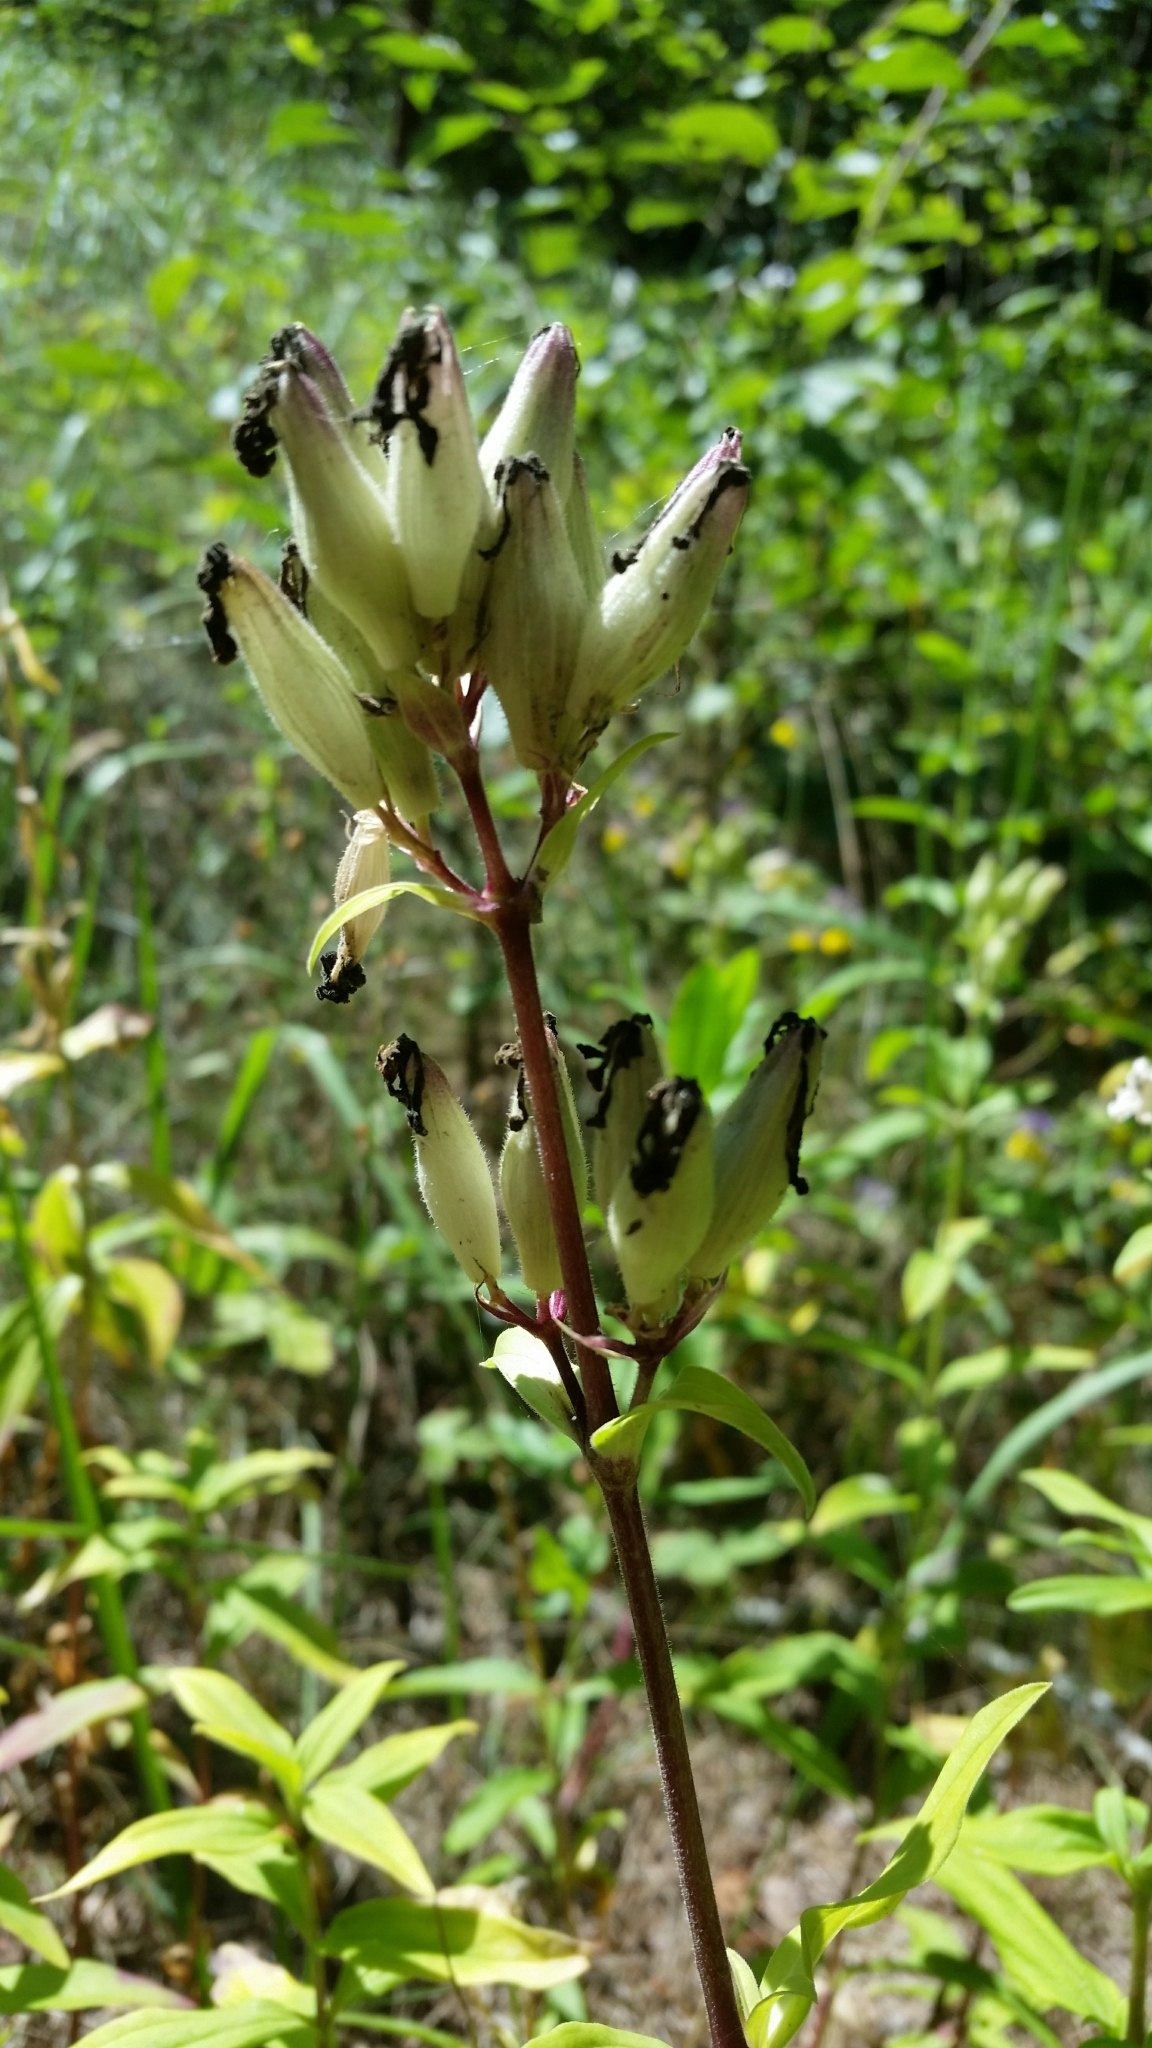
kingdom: Plantae
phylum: Tracheophyta
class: Magnoliopsida
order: Caryophyllales
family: Caryophyllaceae
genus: Saponaria
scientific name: Saponaria officinalis
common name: Soapwort
